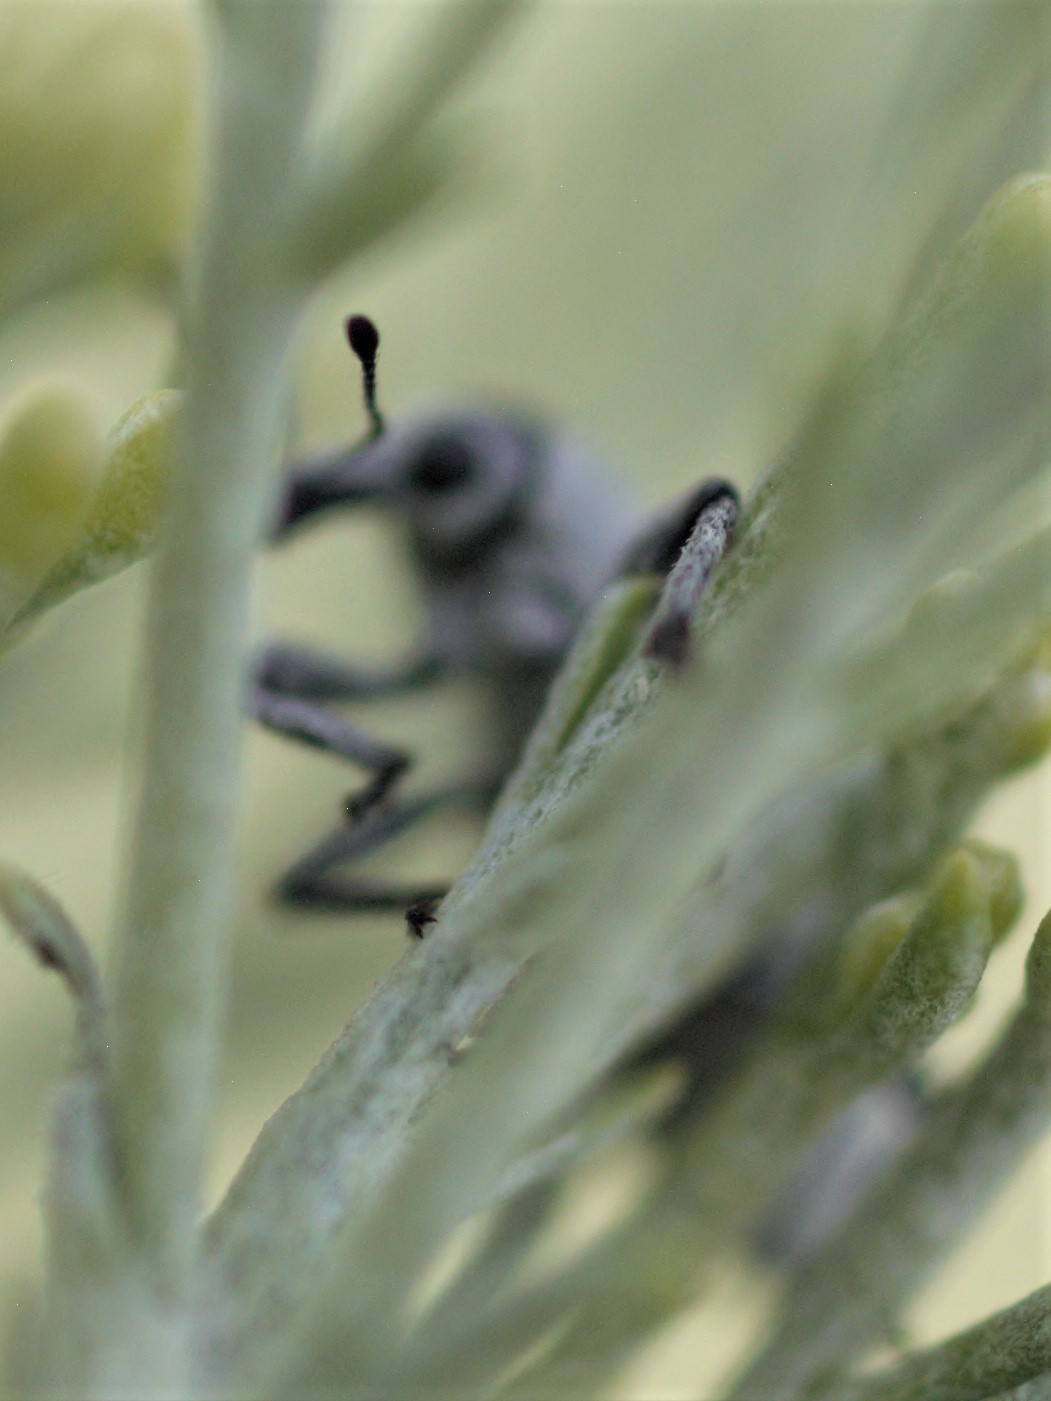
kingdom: Animalia
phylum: Arthropoda
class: Insecta
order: Coleoptera
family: Curculionidae
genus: Myrmex
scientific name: Myrmex lineatus
